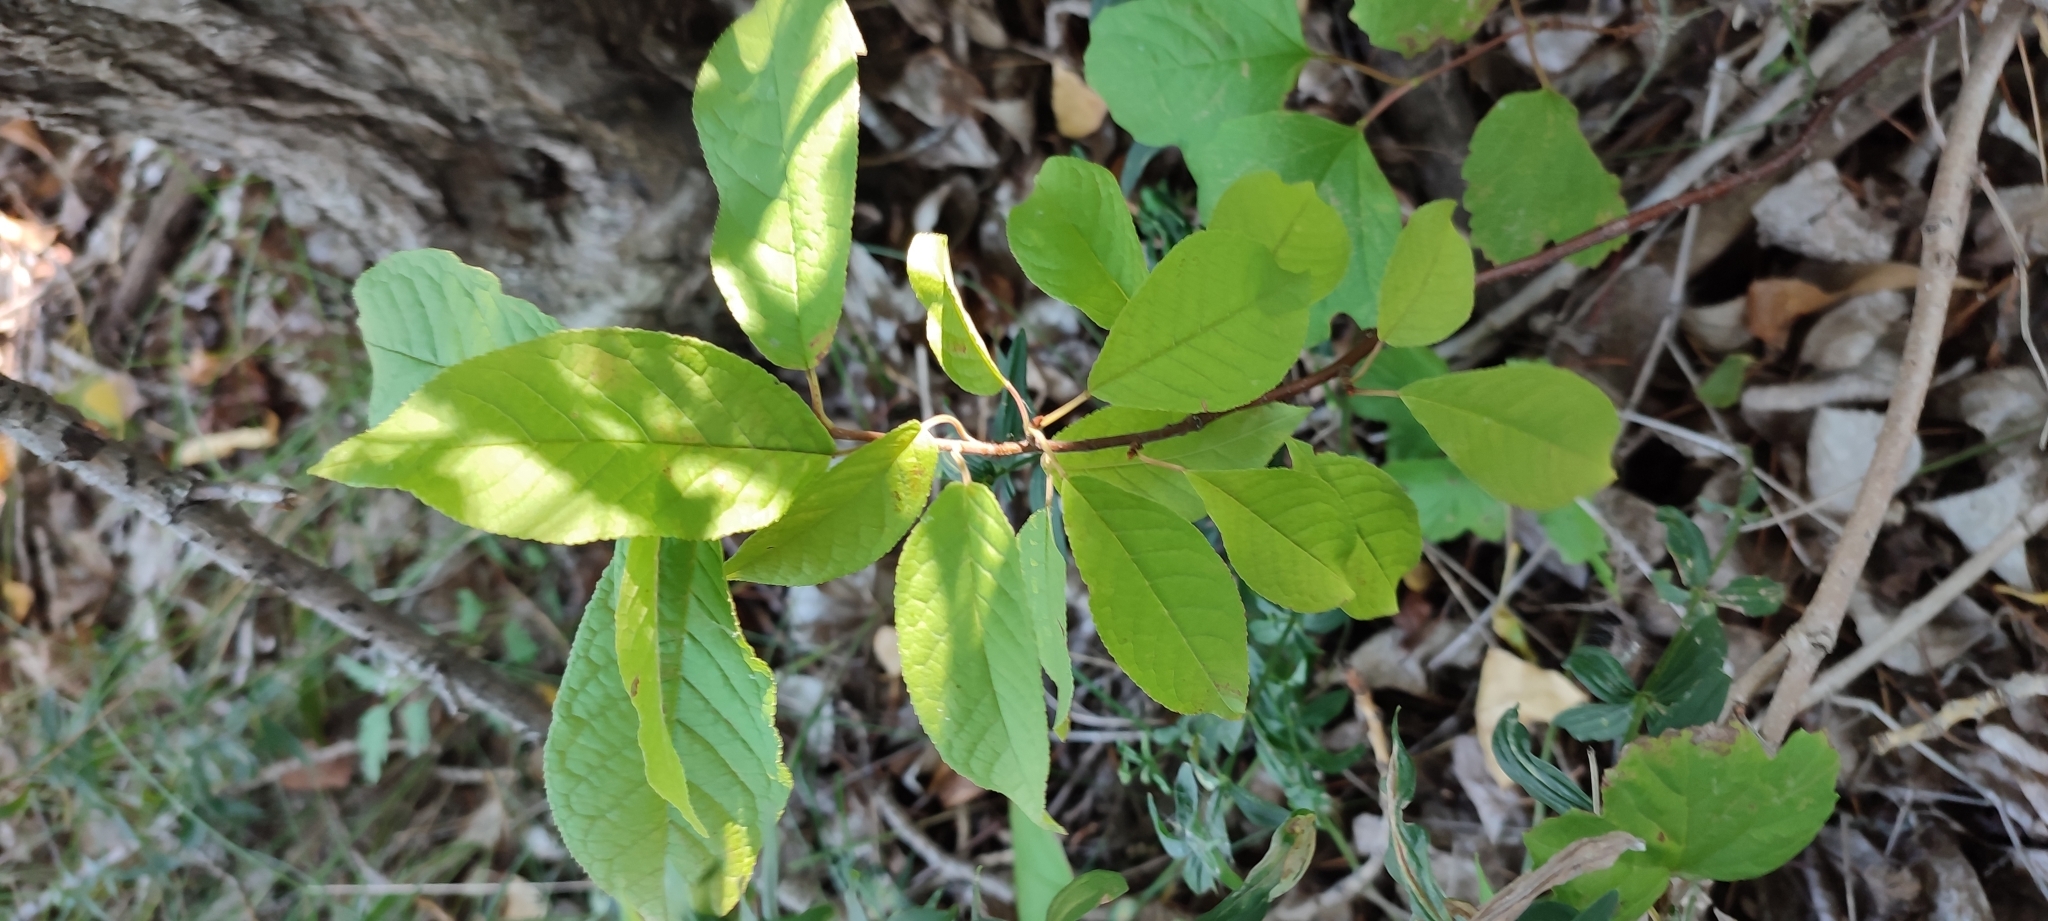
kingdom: Plantae
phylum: Tracheophyta
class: Magnoliopsida
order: Rosales
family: Rosaceae
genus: Prunus
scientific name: Prunus padus
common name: Bird cherry
